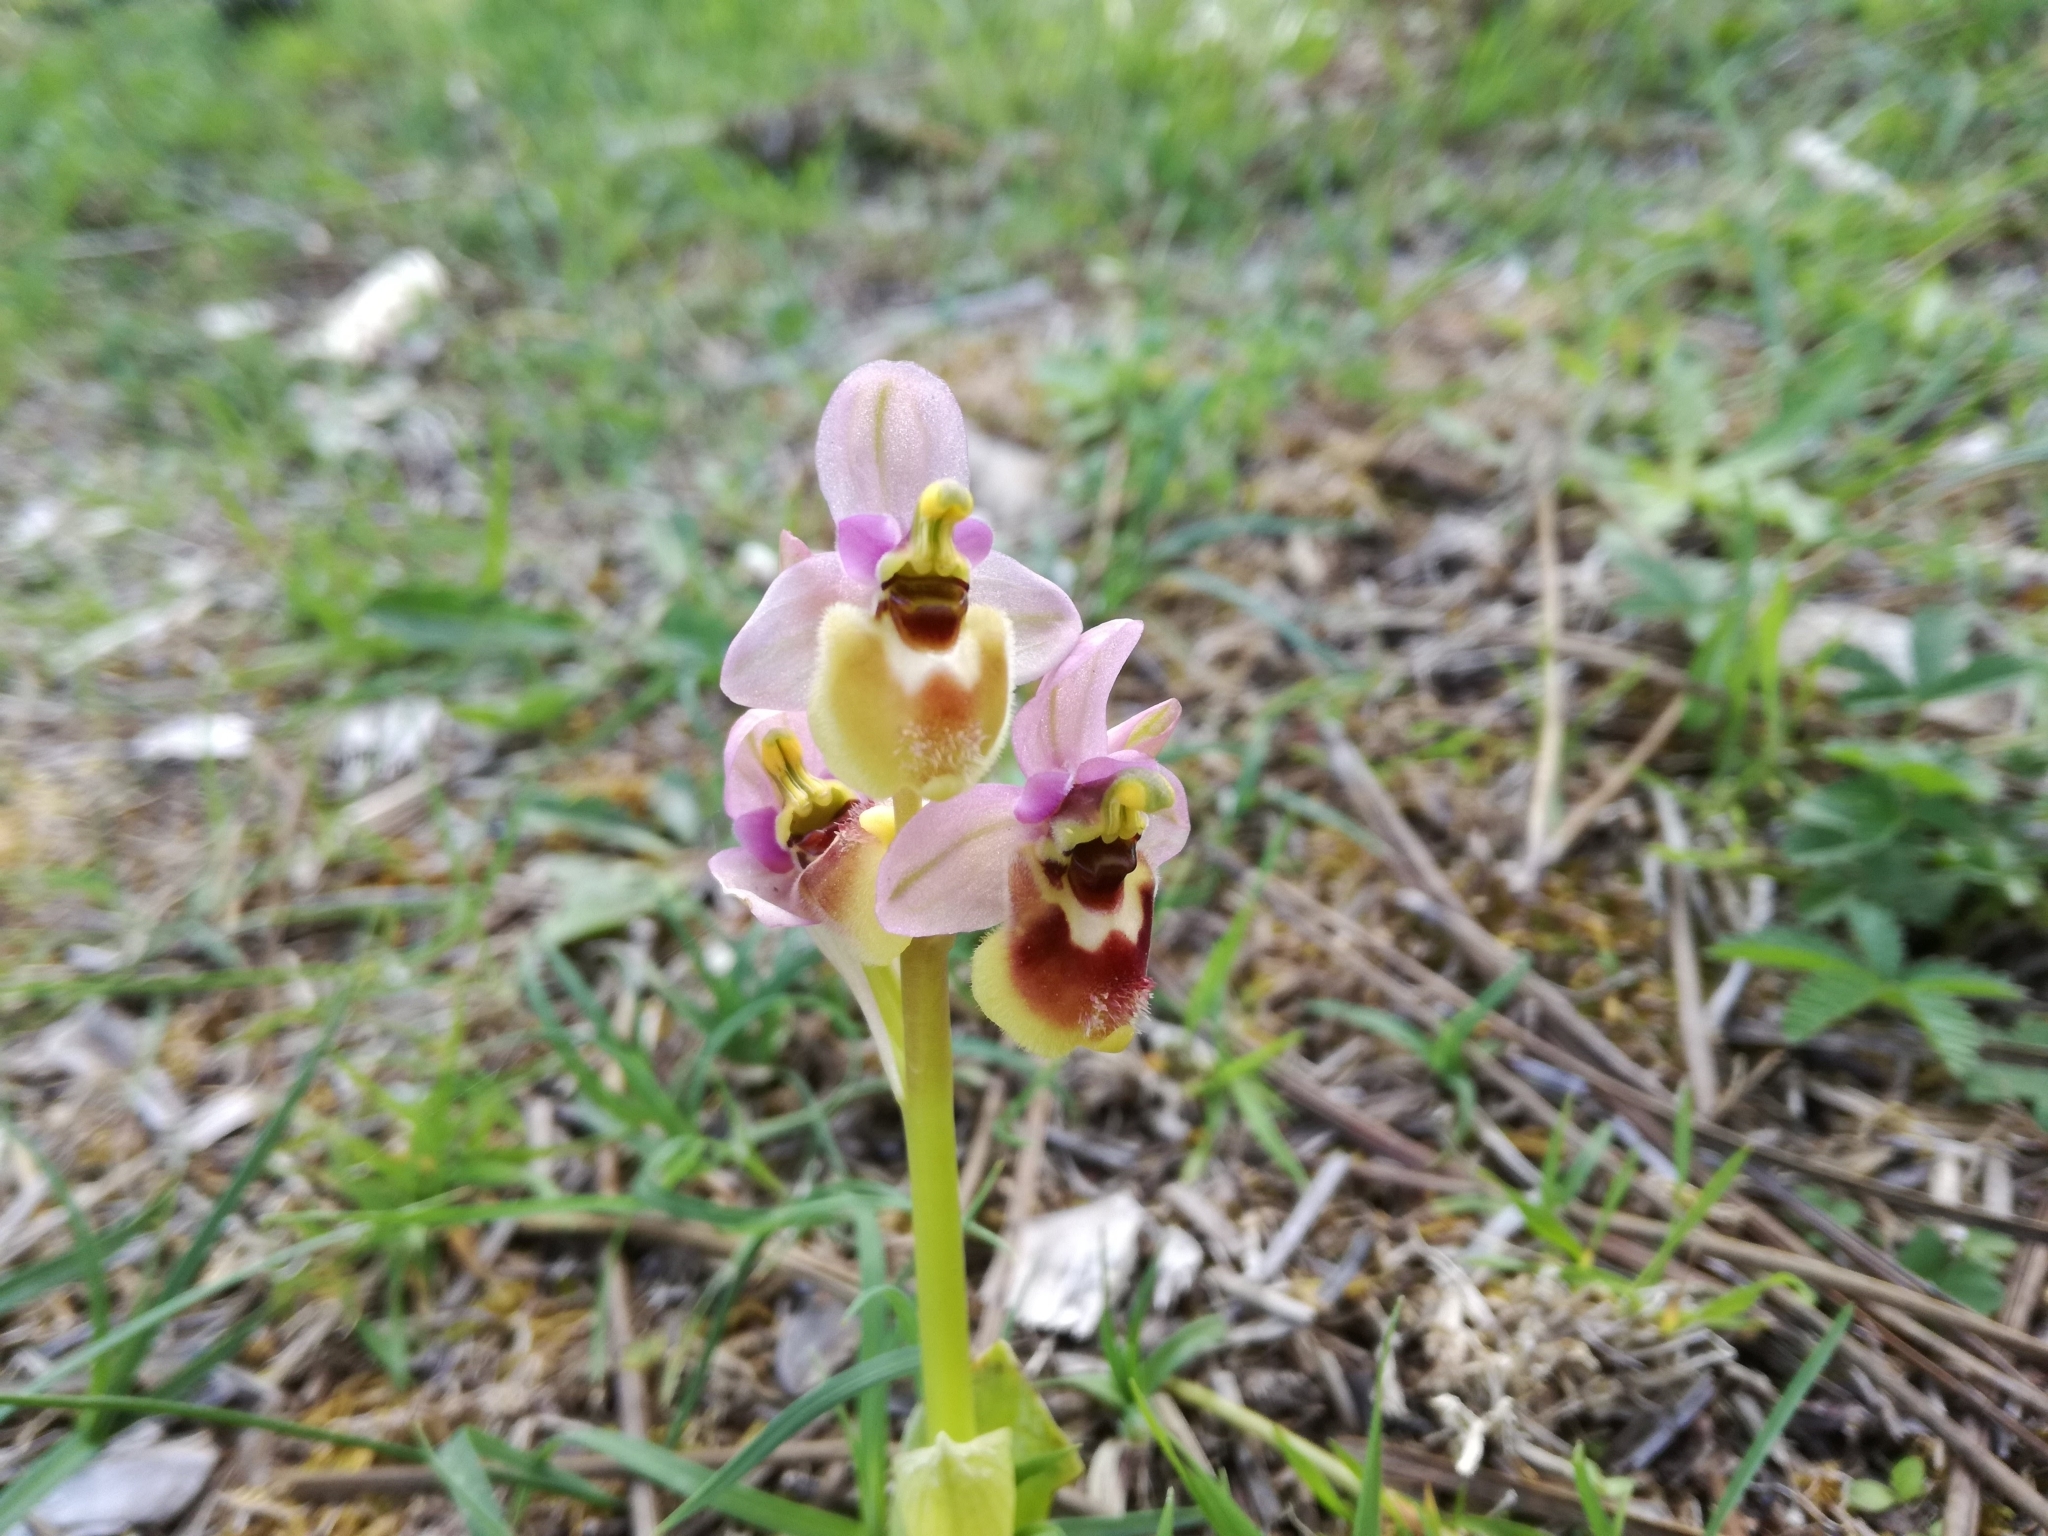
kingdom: Plantae
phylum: Tracheophyta
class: Liliopsida
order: Asparagales
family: Orchidaceae
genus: Ophrys
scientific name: Ophrys tenthredinifera
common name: Sawfly orchid
